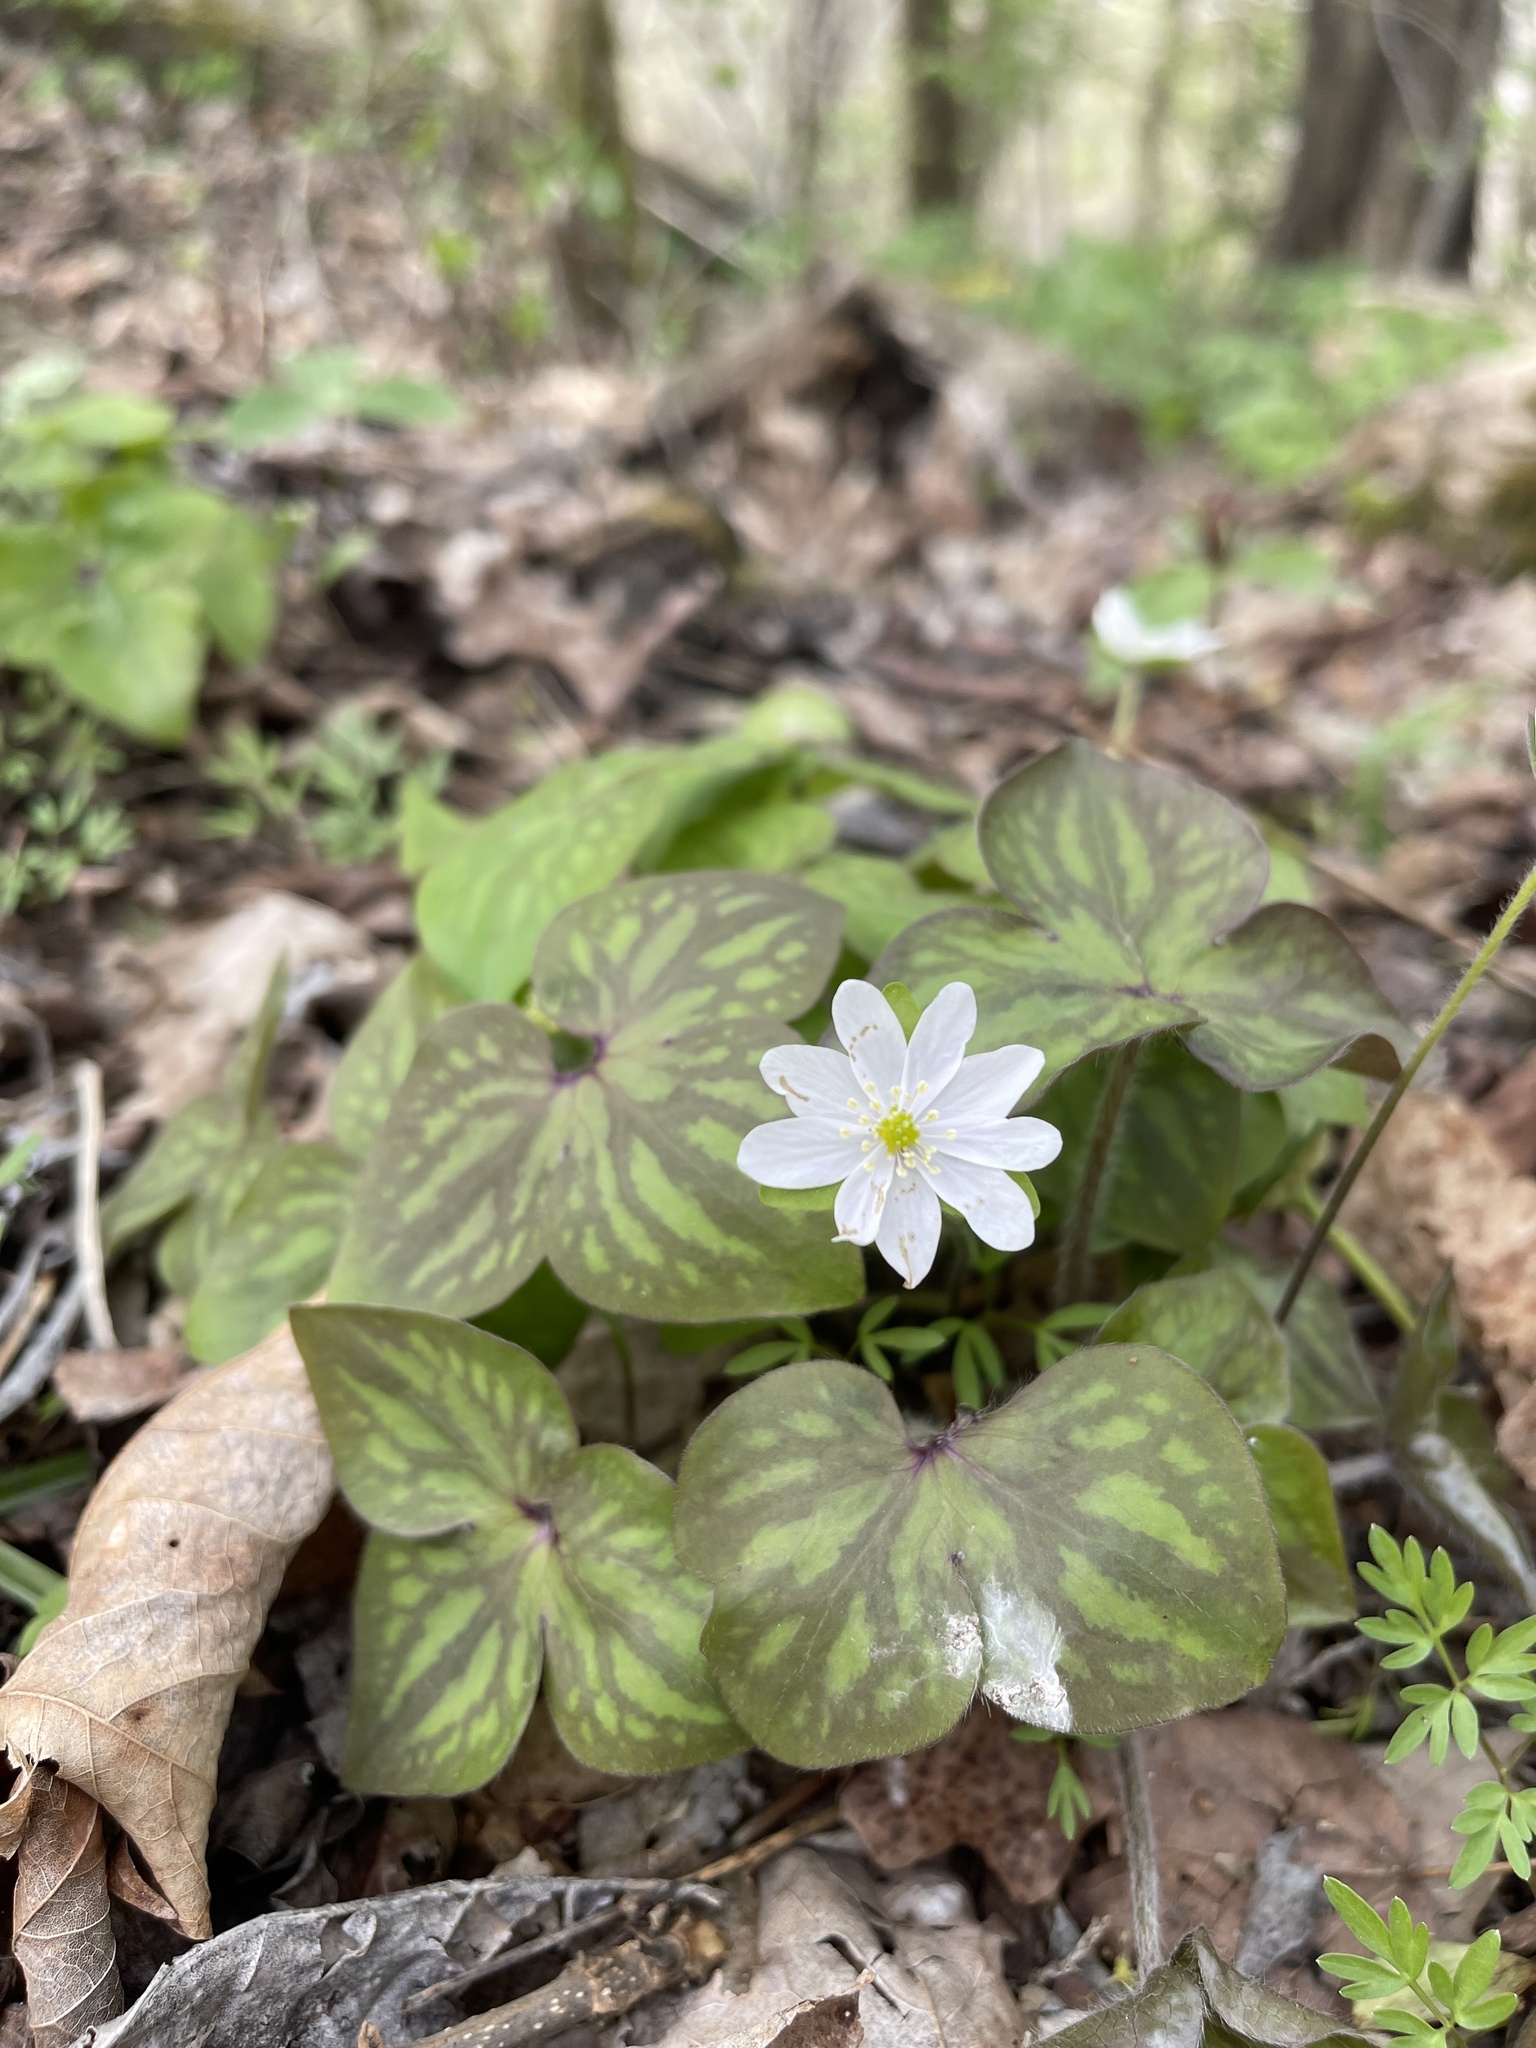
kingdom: Plantae
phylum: Tracheophyta
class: Magnoliopsida
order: Ranunculales
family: Ranunculaceae
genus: Hepatica
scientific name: Hepatica acutiloba
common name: Sharp-lobed hepatica
